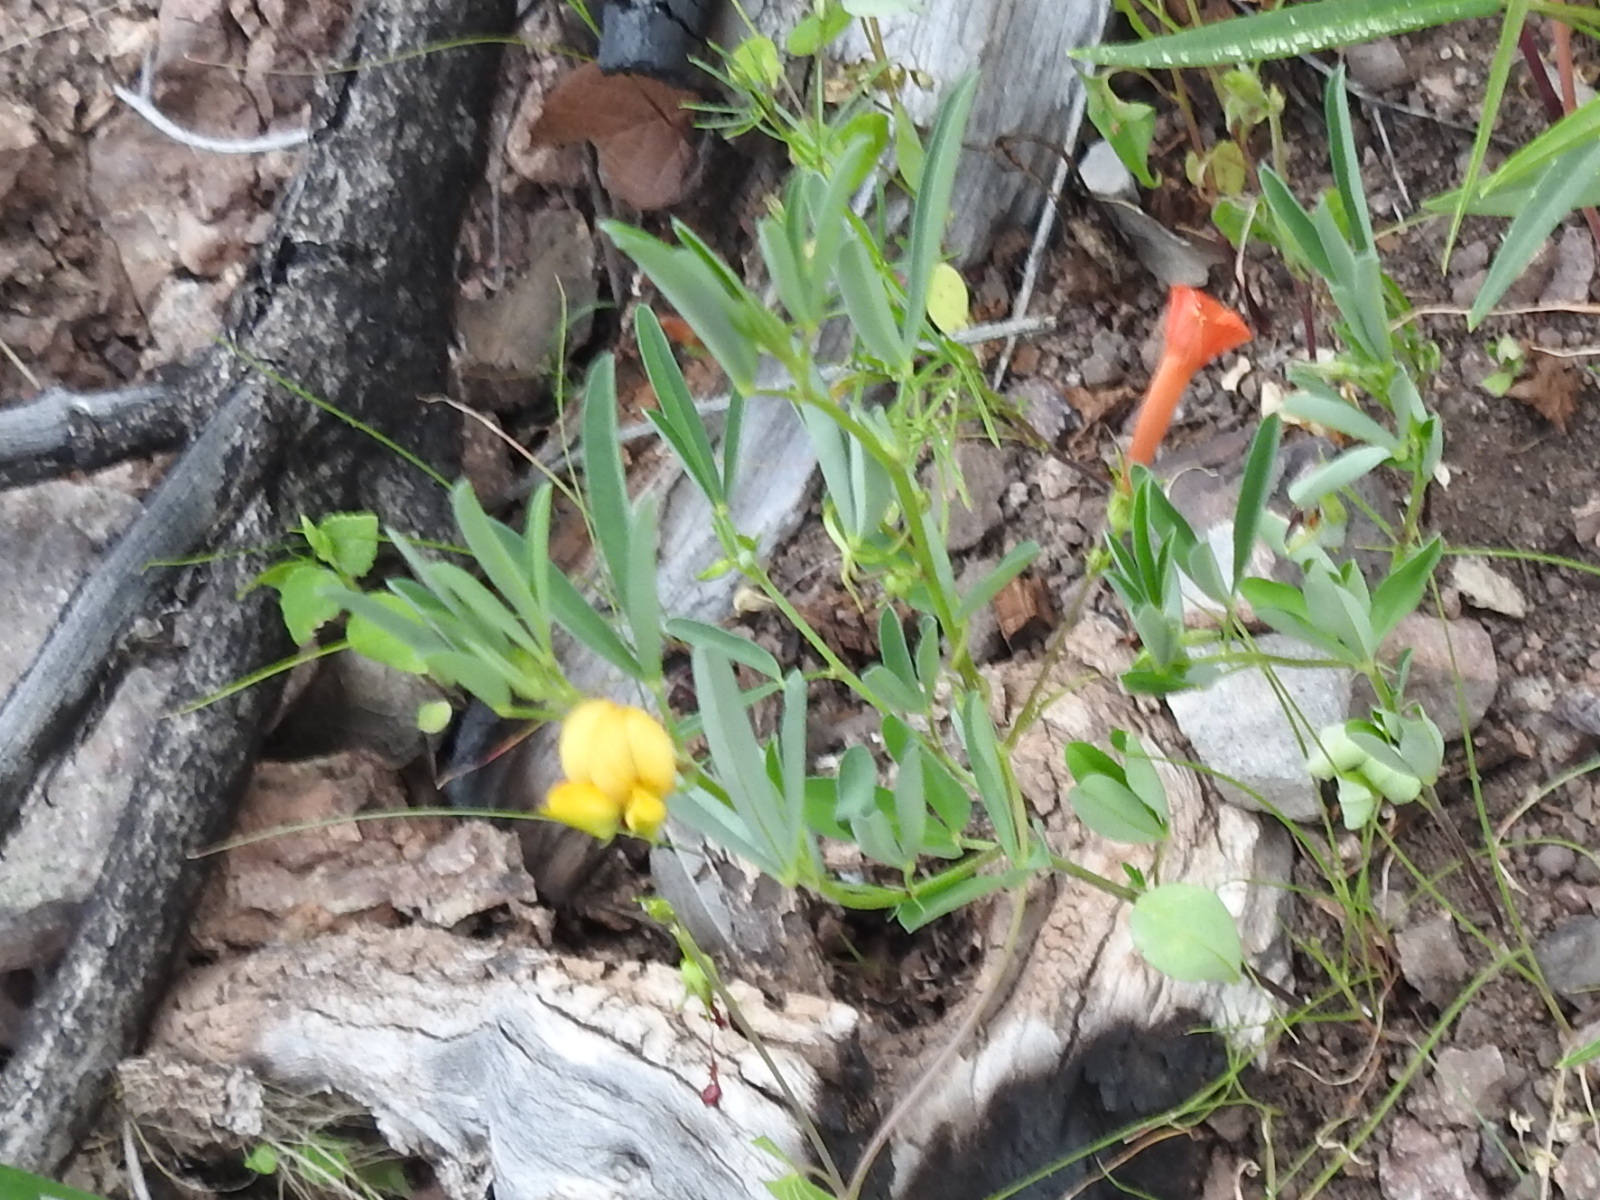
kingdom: Plantae
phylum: Tracheophyta
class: Magnoliopsida
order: Fabales
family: Fabaceae
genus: Crotalaria
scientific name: Crotalaria pumila
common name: Low rattlebox
